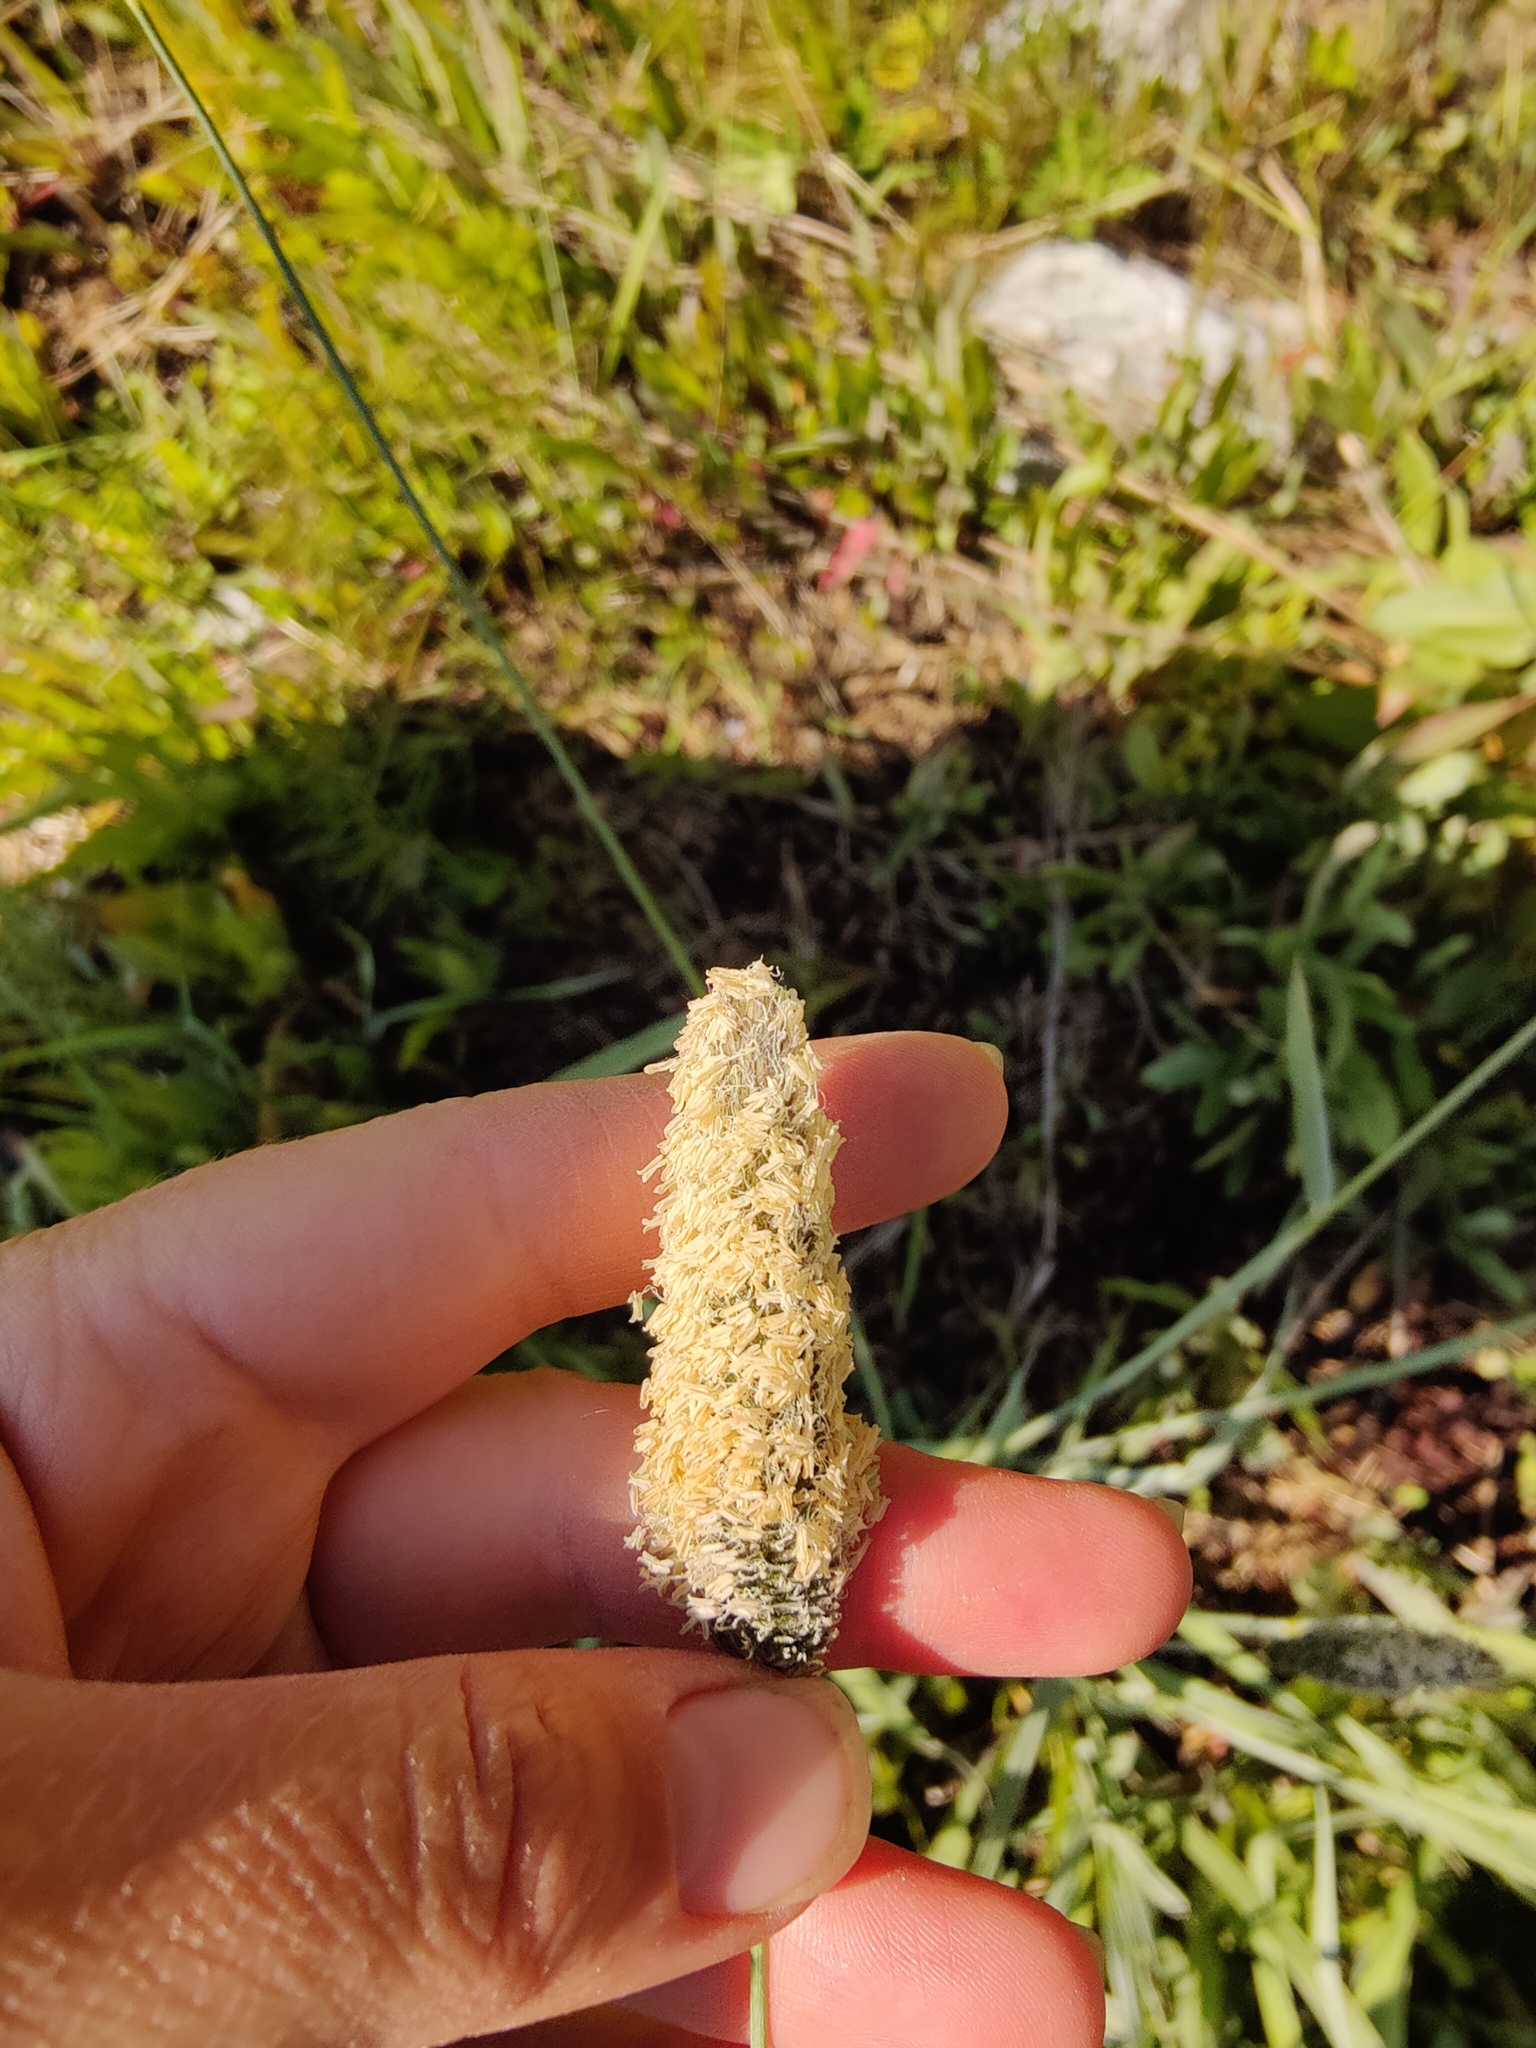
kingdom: Plantae
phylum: Tracheophyta
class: Liliopsida
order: Poales
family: Poaceae
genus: Alopecurus
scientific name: Alopecurus arundinaceus
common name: Creeping meadow foxtail
